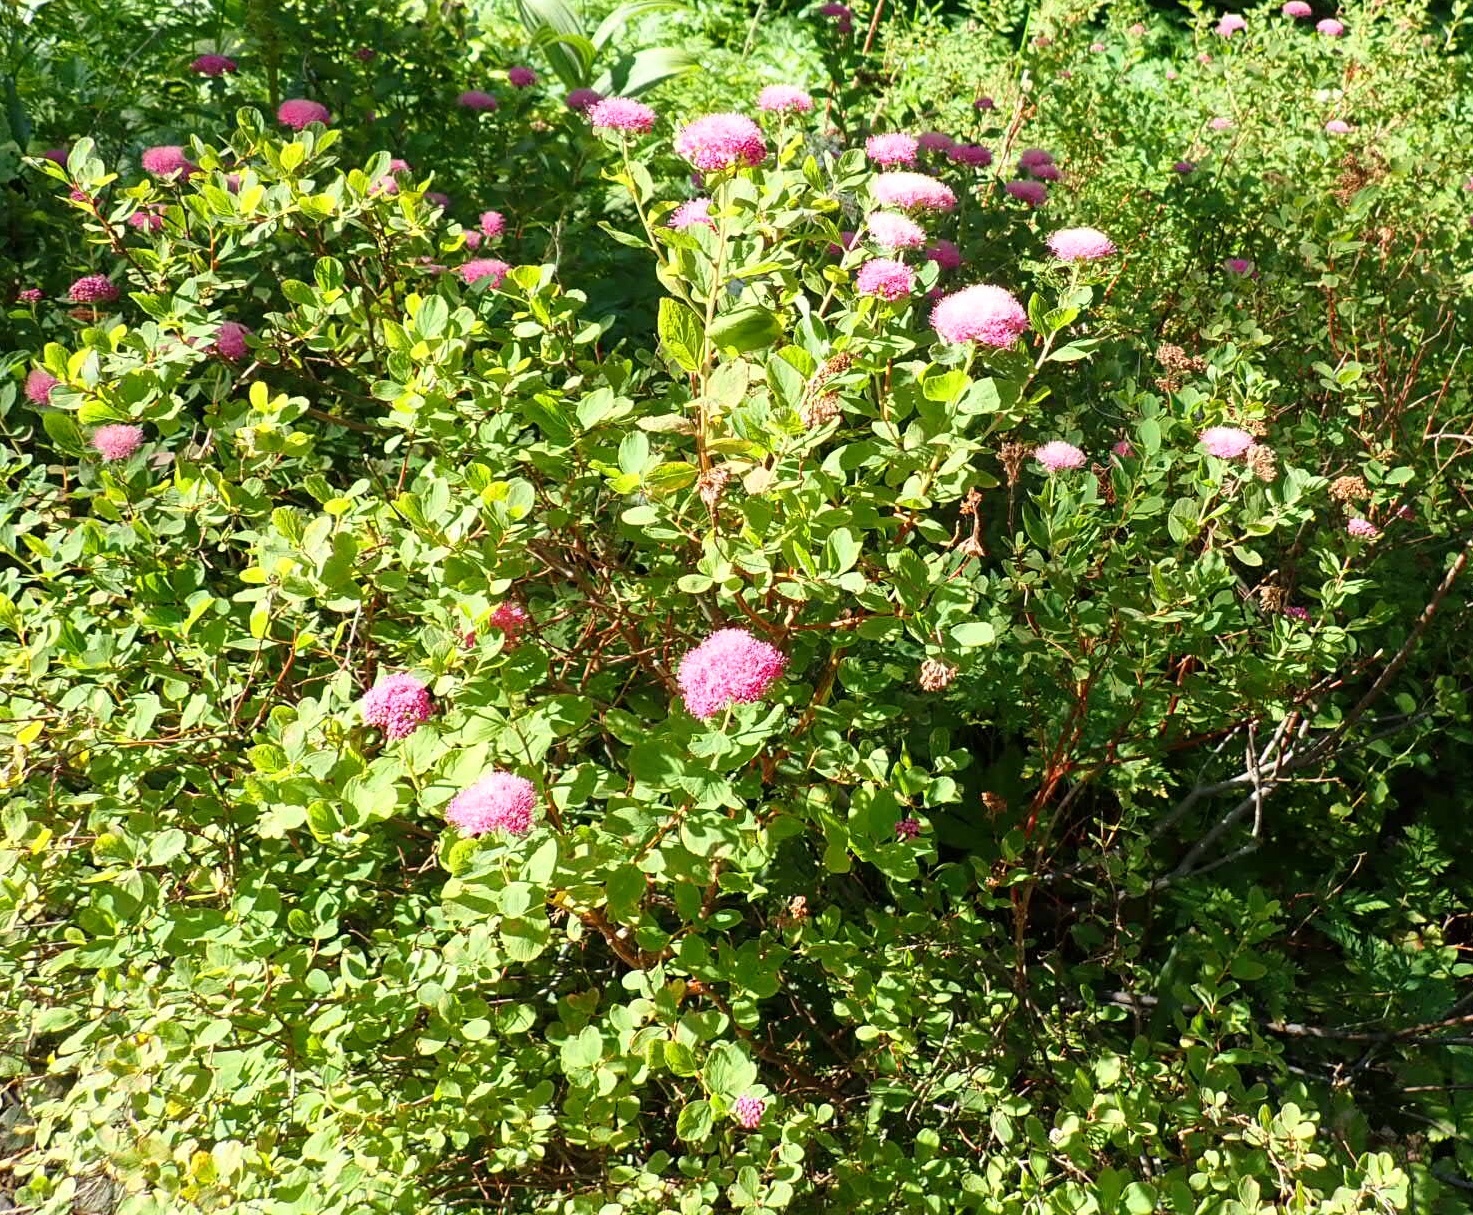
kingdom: Plantae
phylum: Tracheophyta
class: Magnoliopsida
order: Rosales
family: Rosaceae
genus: Spiraea
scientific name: Spiraea splendens
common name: Subalpine meadowsweet
